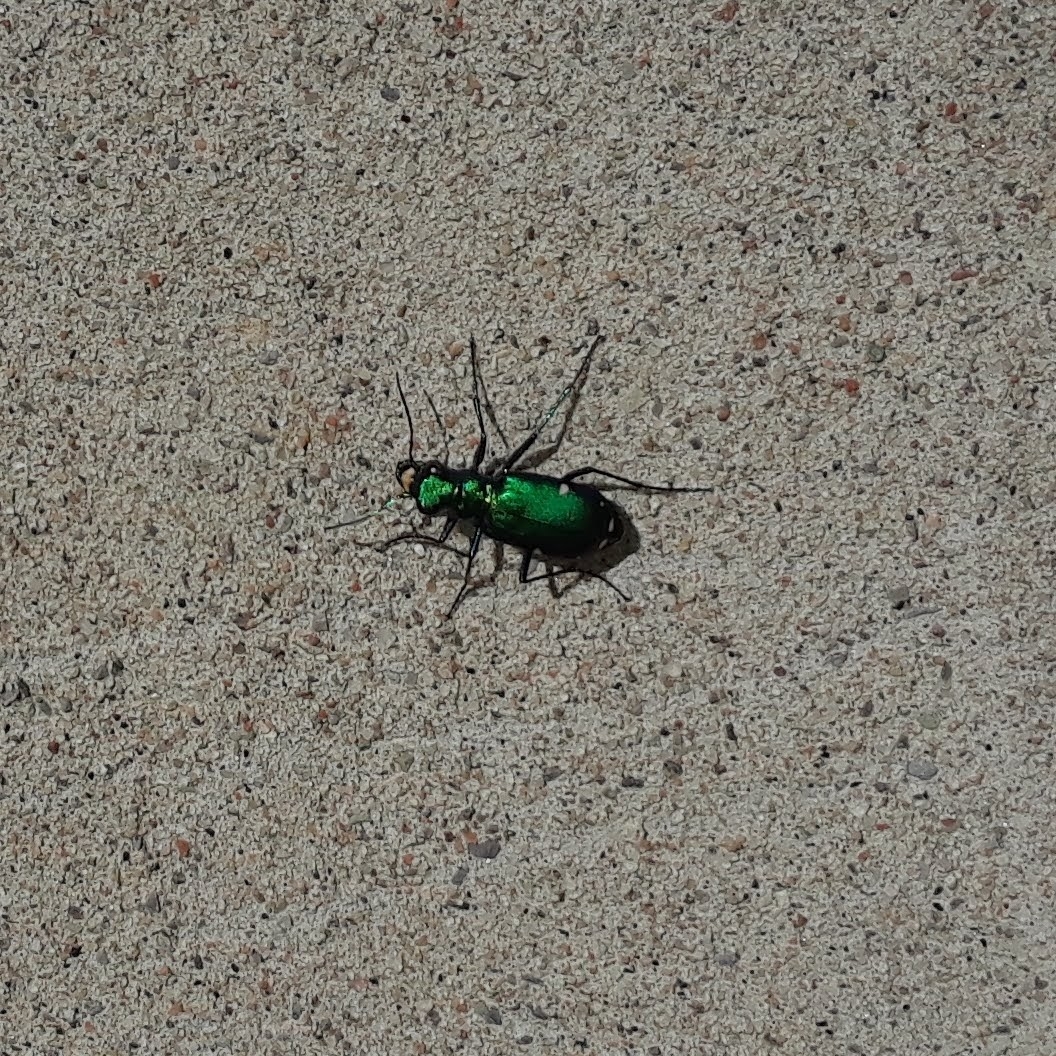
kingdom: Animalia
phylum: Arthropoda
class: Insecta
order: Coleoptera
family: Carabidae
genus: Cicindela
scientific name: Cicindela sexguttata
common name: Six-spotted tiger beetle
